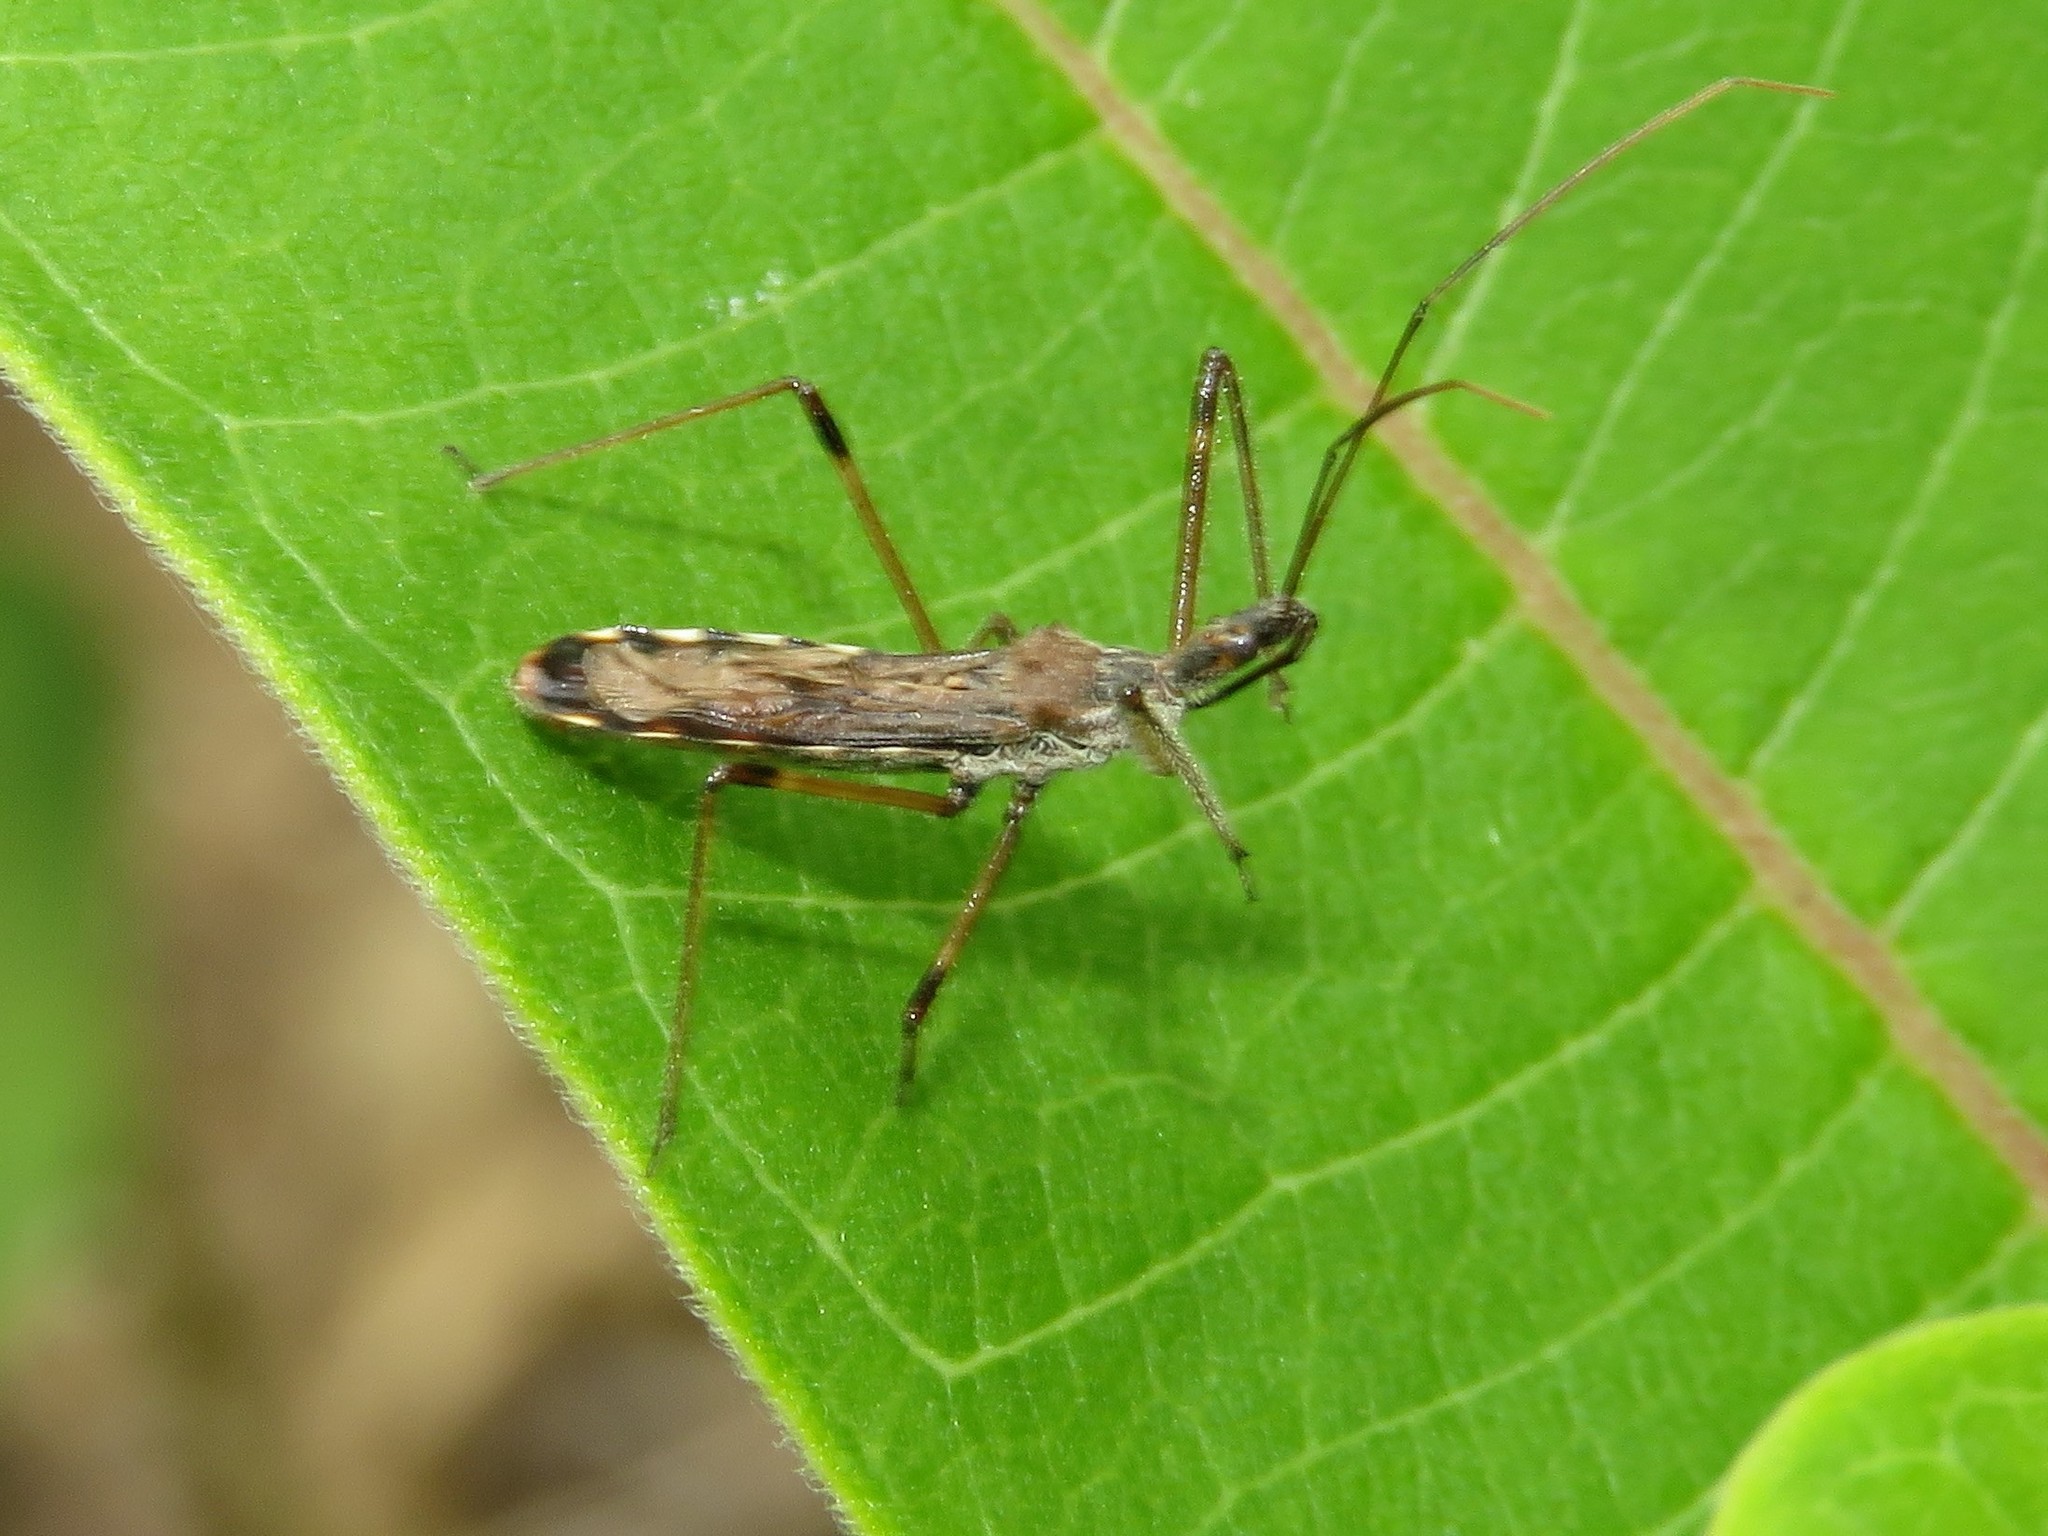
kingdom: Animalia
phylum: Arthropoda
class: Insecta
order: Hemiptera
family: Reduviidae
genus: Zelus
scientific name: Zelus tetracanthus
